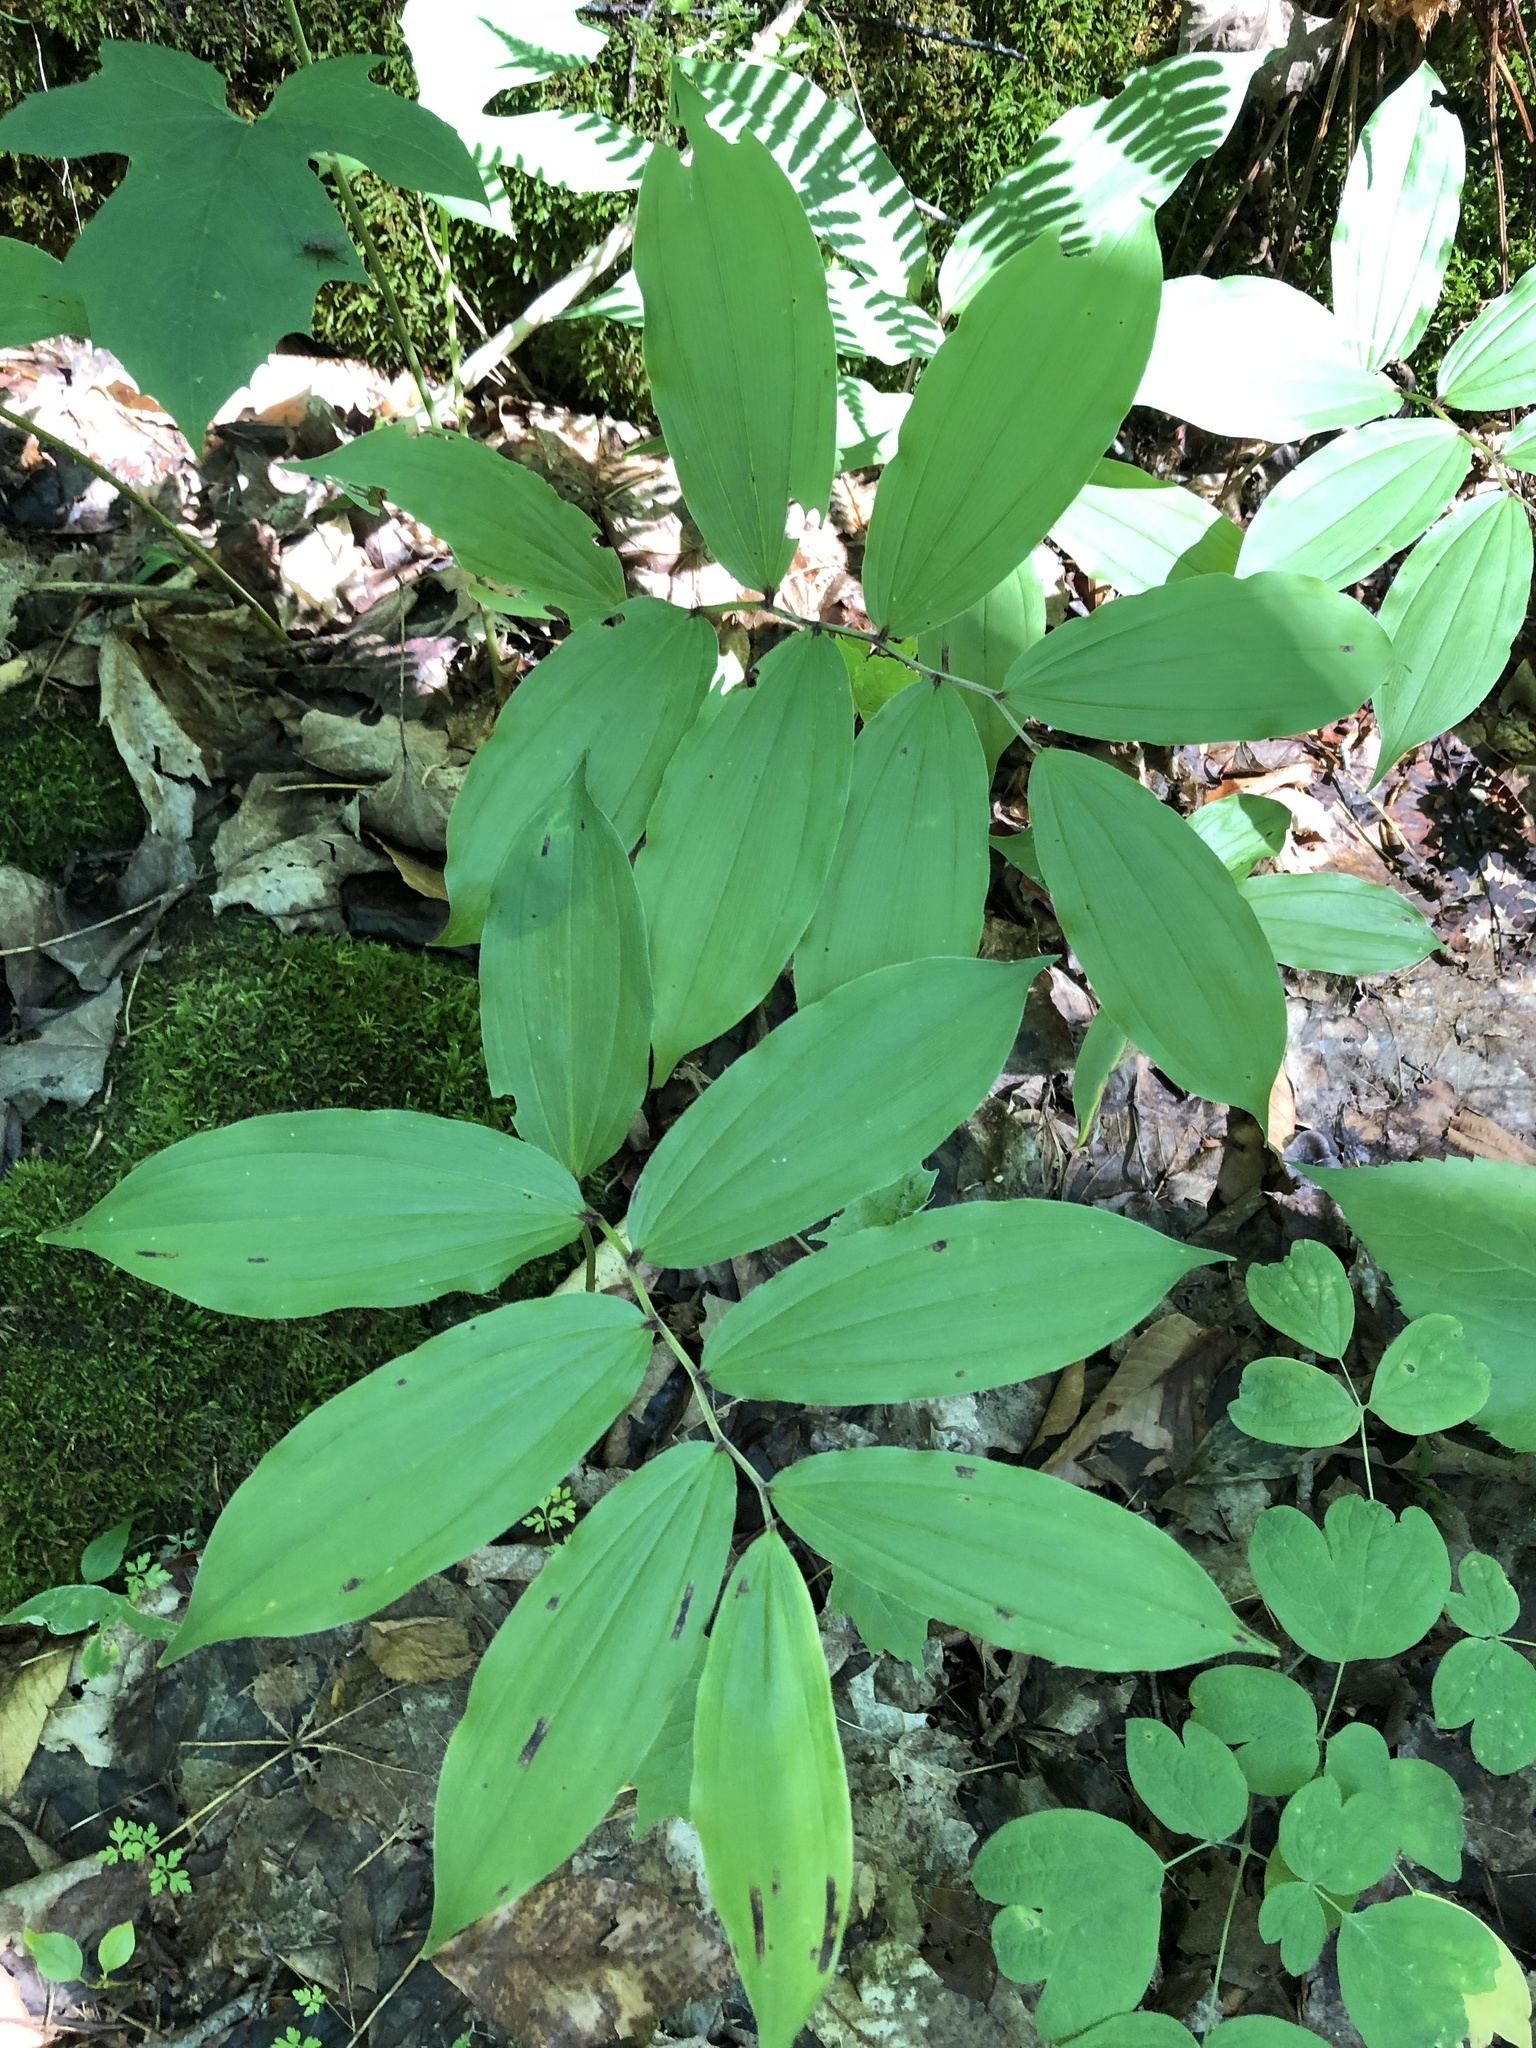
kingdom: Plantae
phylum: Tracheophyta
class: Liliopsida
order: Asparagales
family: Asparagaceae
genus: Maianthemum
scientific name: Maianthemum racemosum
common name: False spikenard
